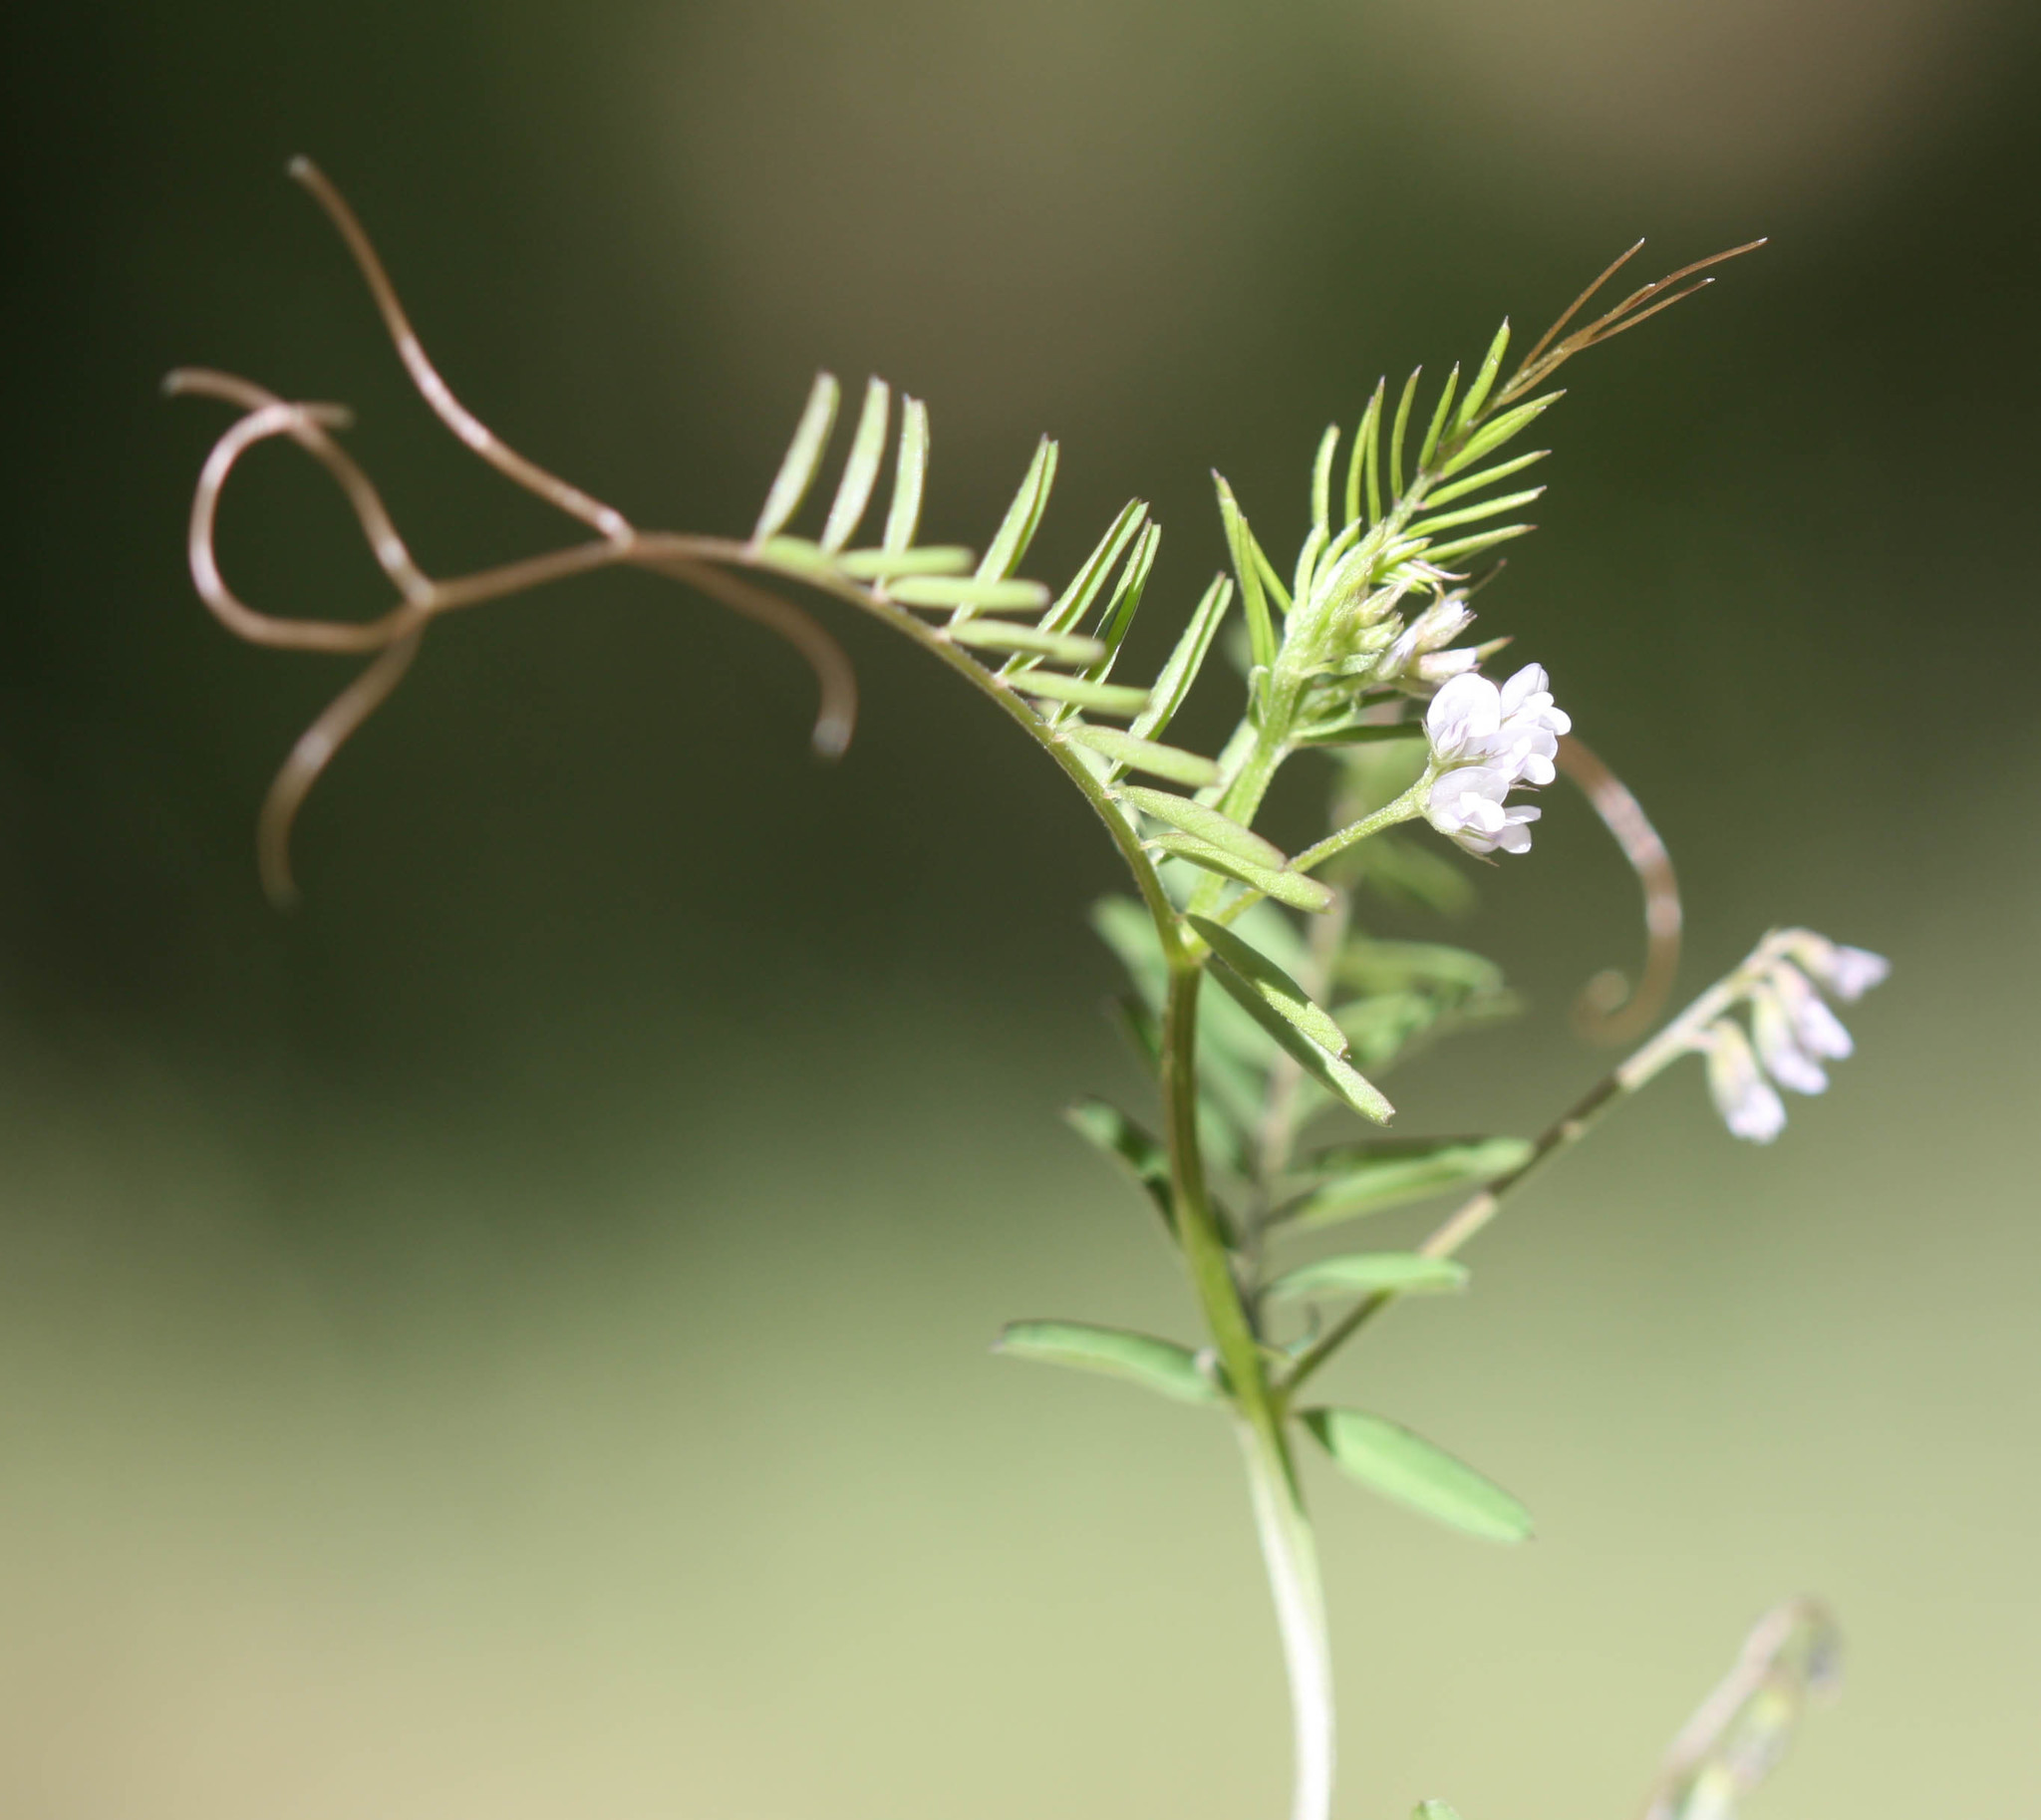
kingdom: Plantae
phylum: Tracheophyta
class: Magnoliopsida
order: Fabales
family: Fabaceae
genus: Vicia
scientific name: Vicia hirsuta
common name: Tiny vetch
